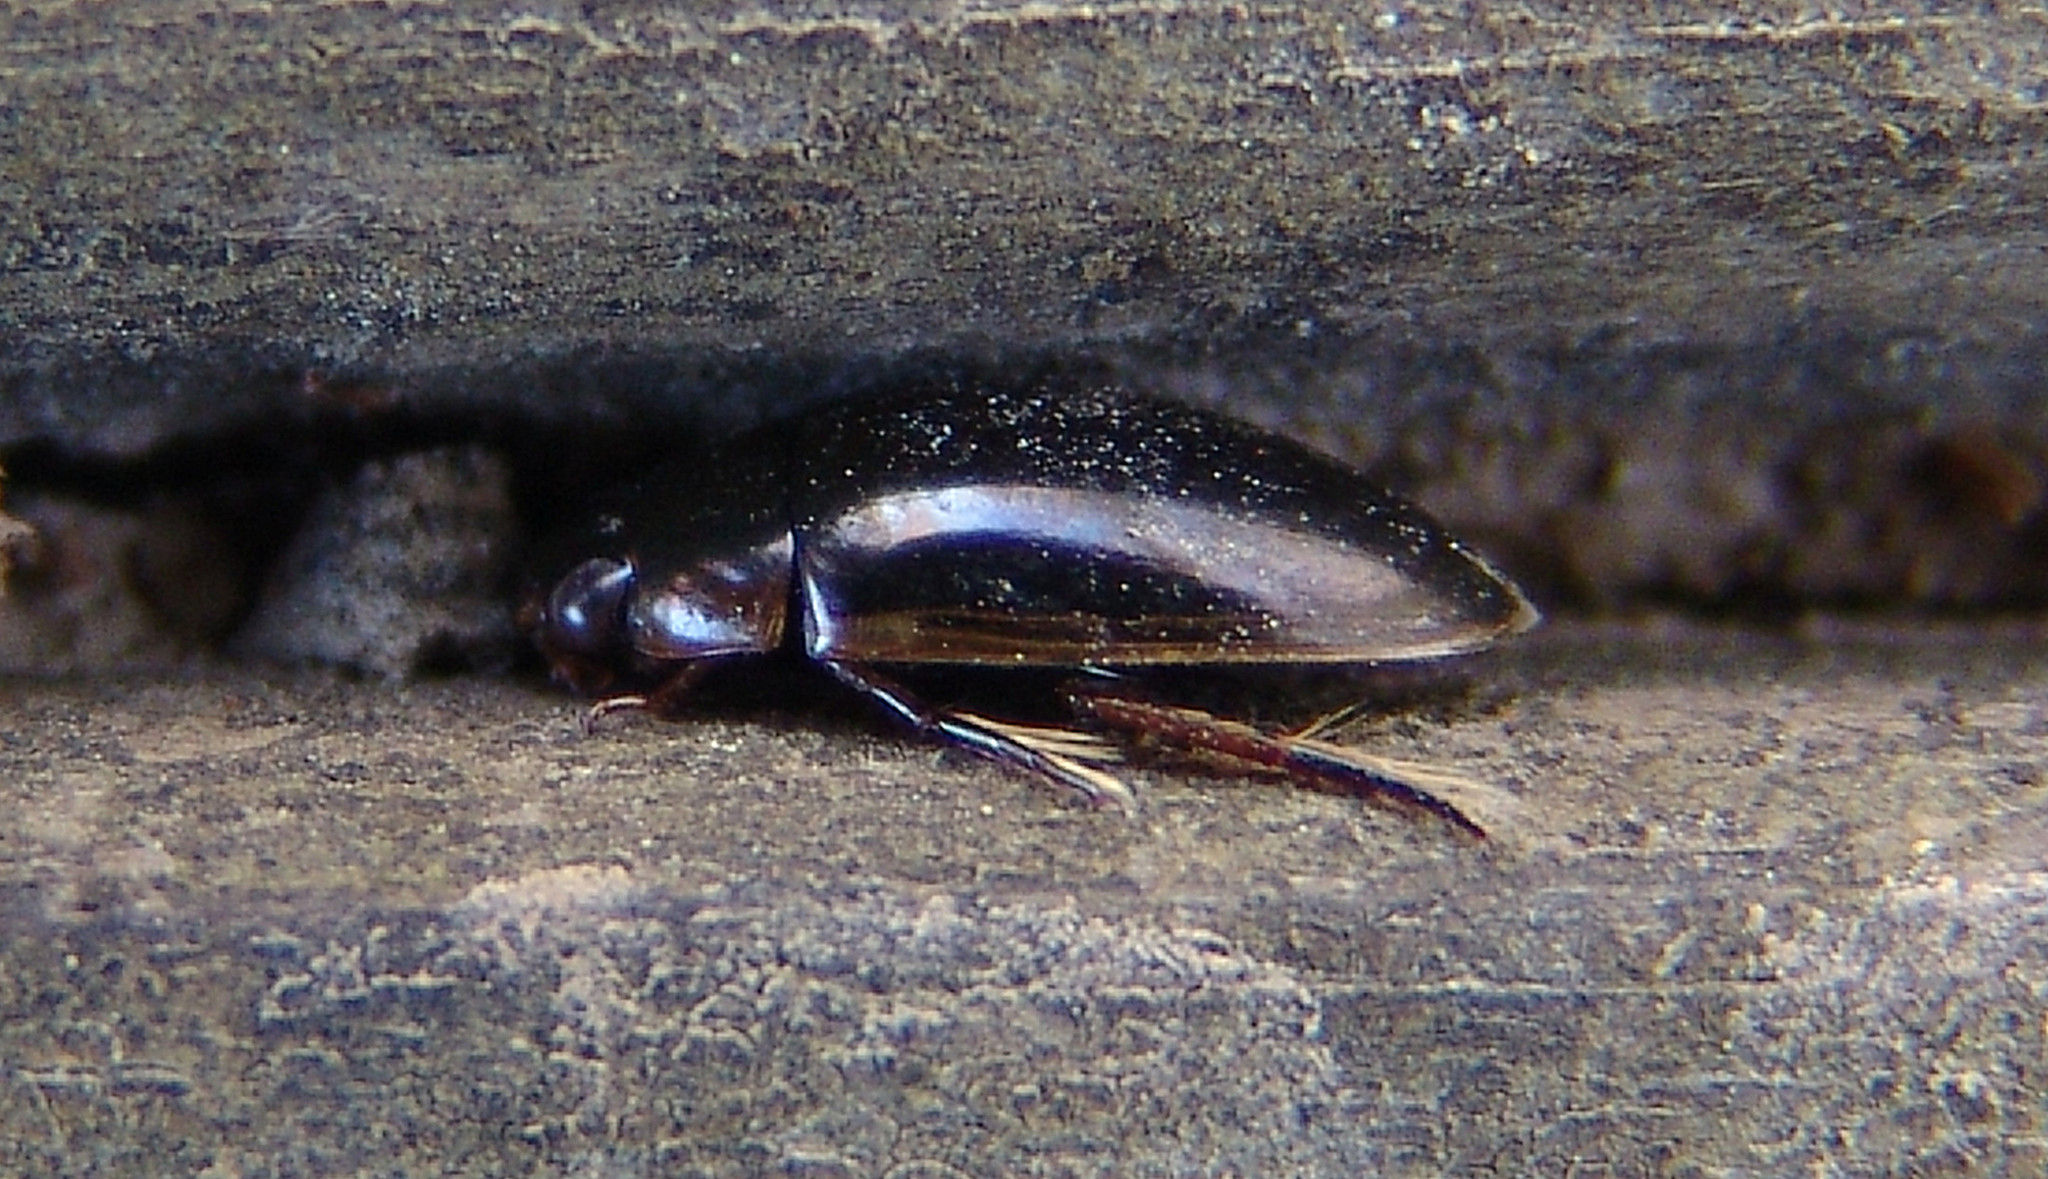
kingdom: Animalia
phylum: Arthropoda
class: Insecta
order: Coleoptera
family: Hydrophilidae
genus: Tropisternus
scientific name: Tropisternus lateralis
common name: Lateral-banded water scavenger beetle
